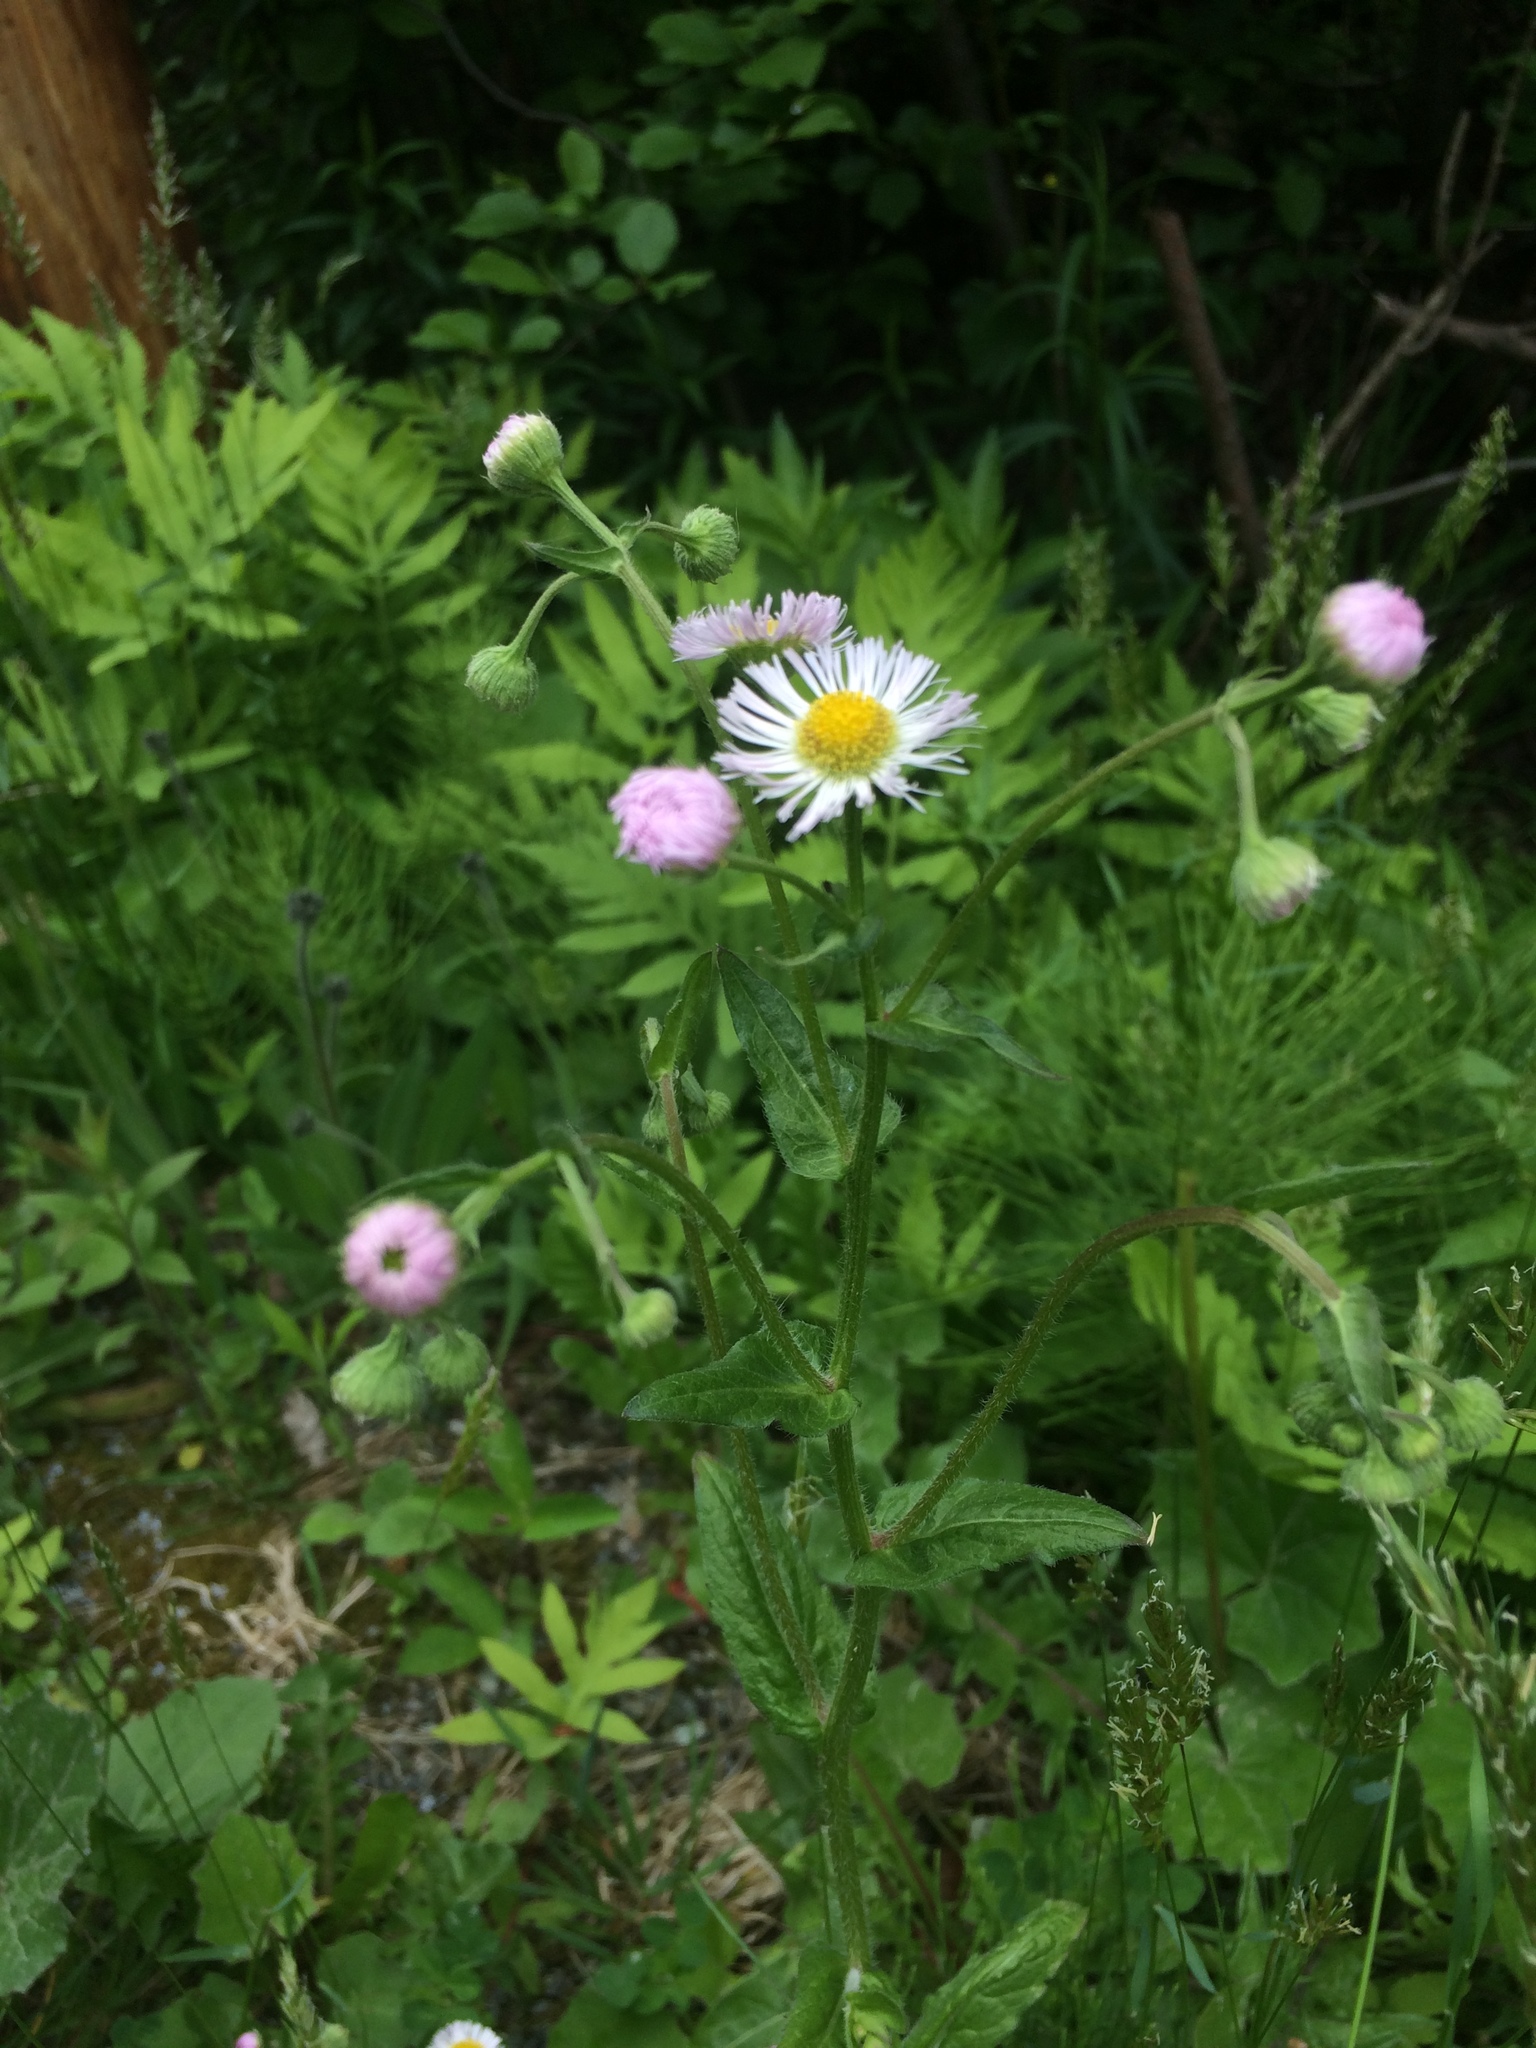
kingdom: Plantae
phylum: Tracheophyta
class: Magnoliopsida
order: Asterales
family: Asteraceae
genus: Erigeron
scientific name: Erigeron philadelphicus
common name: Robin's-plantain
